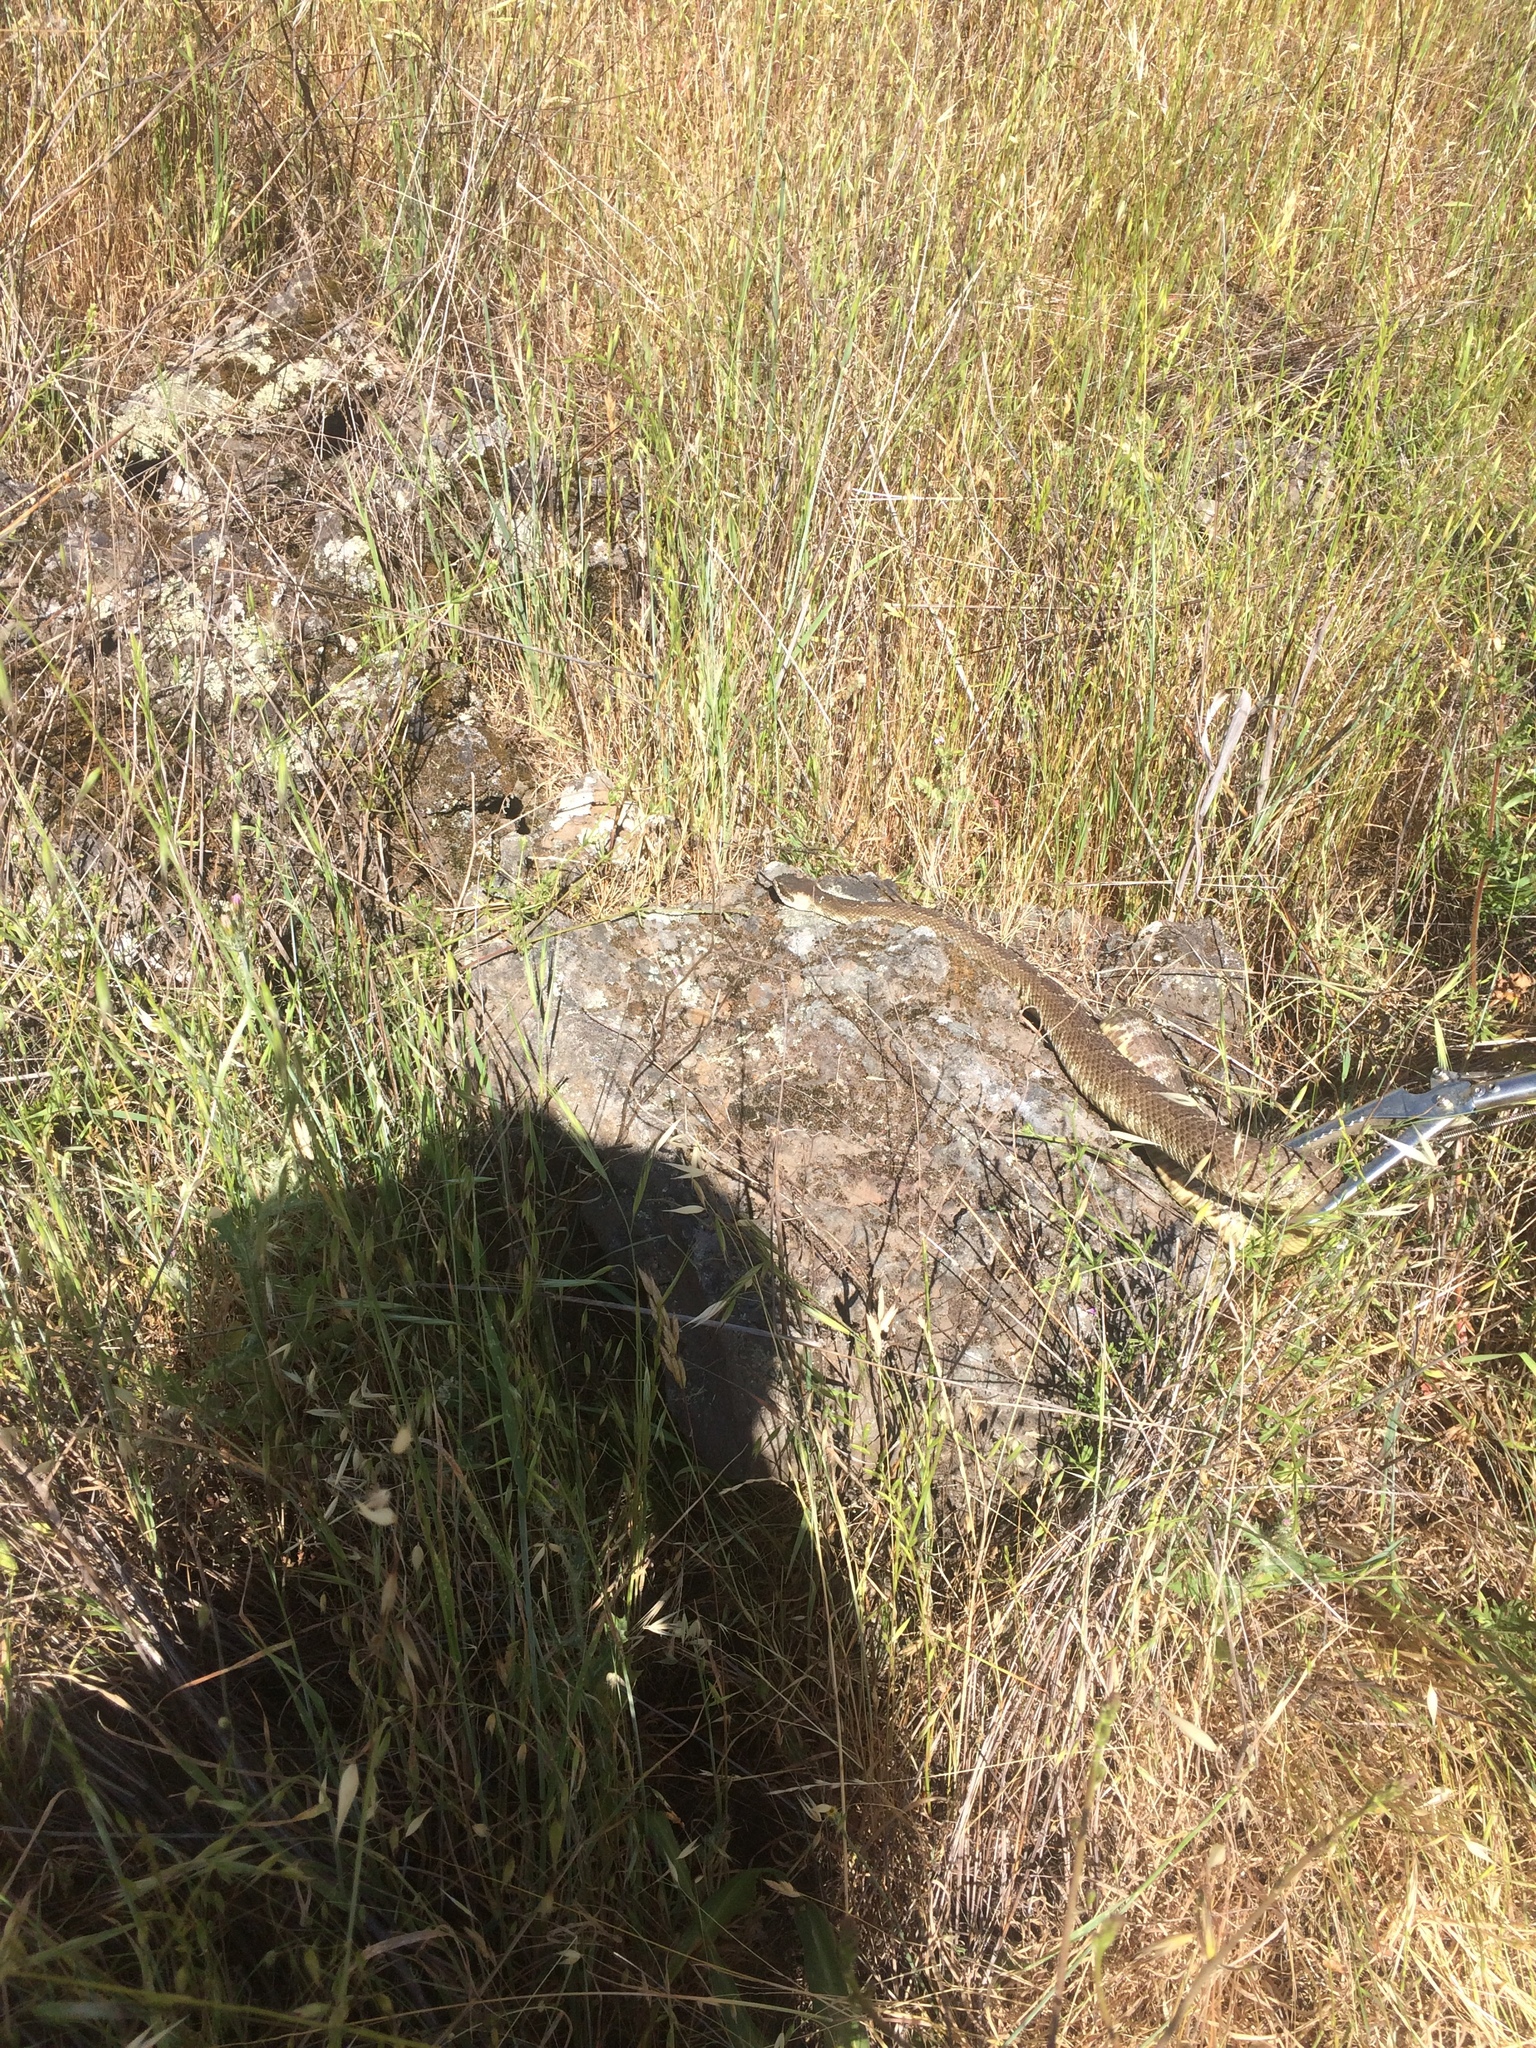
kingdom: Animalia
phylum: Chordata
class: Squamata
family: Viperidae
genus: Crotalus
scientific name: Crotalus oreganus
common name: Abyssus
